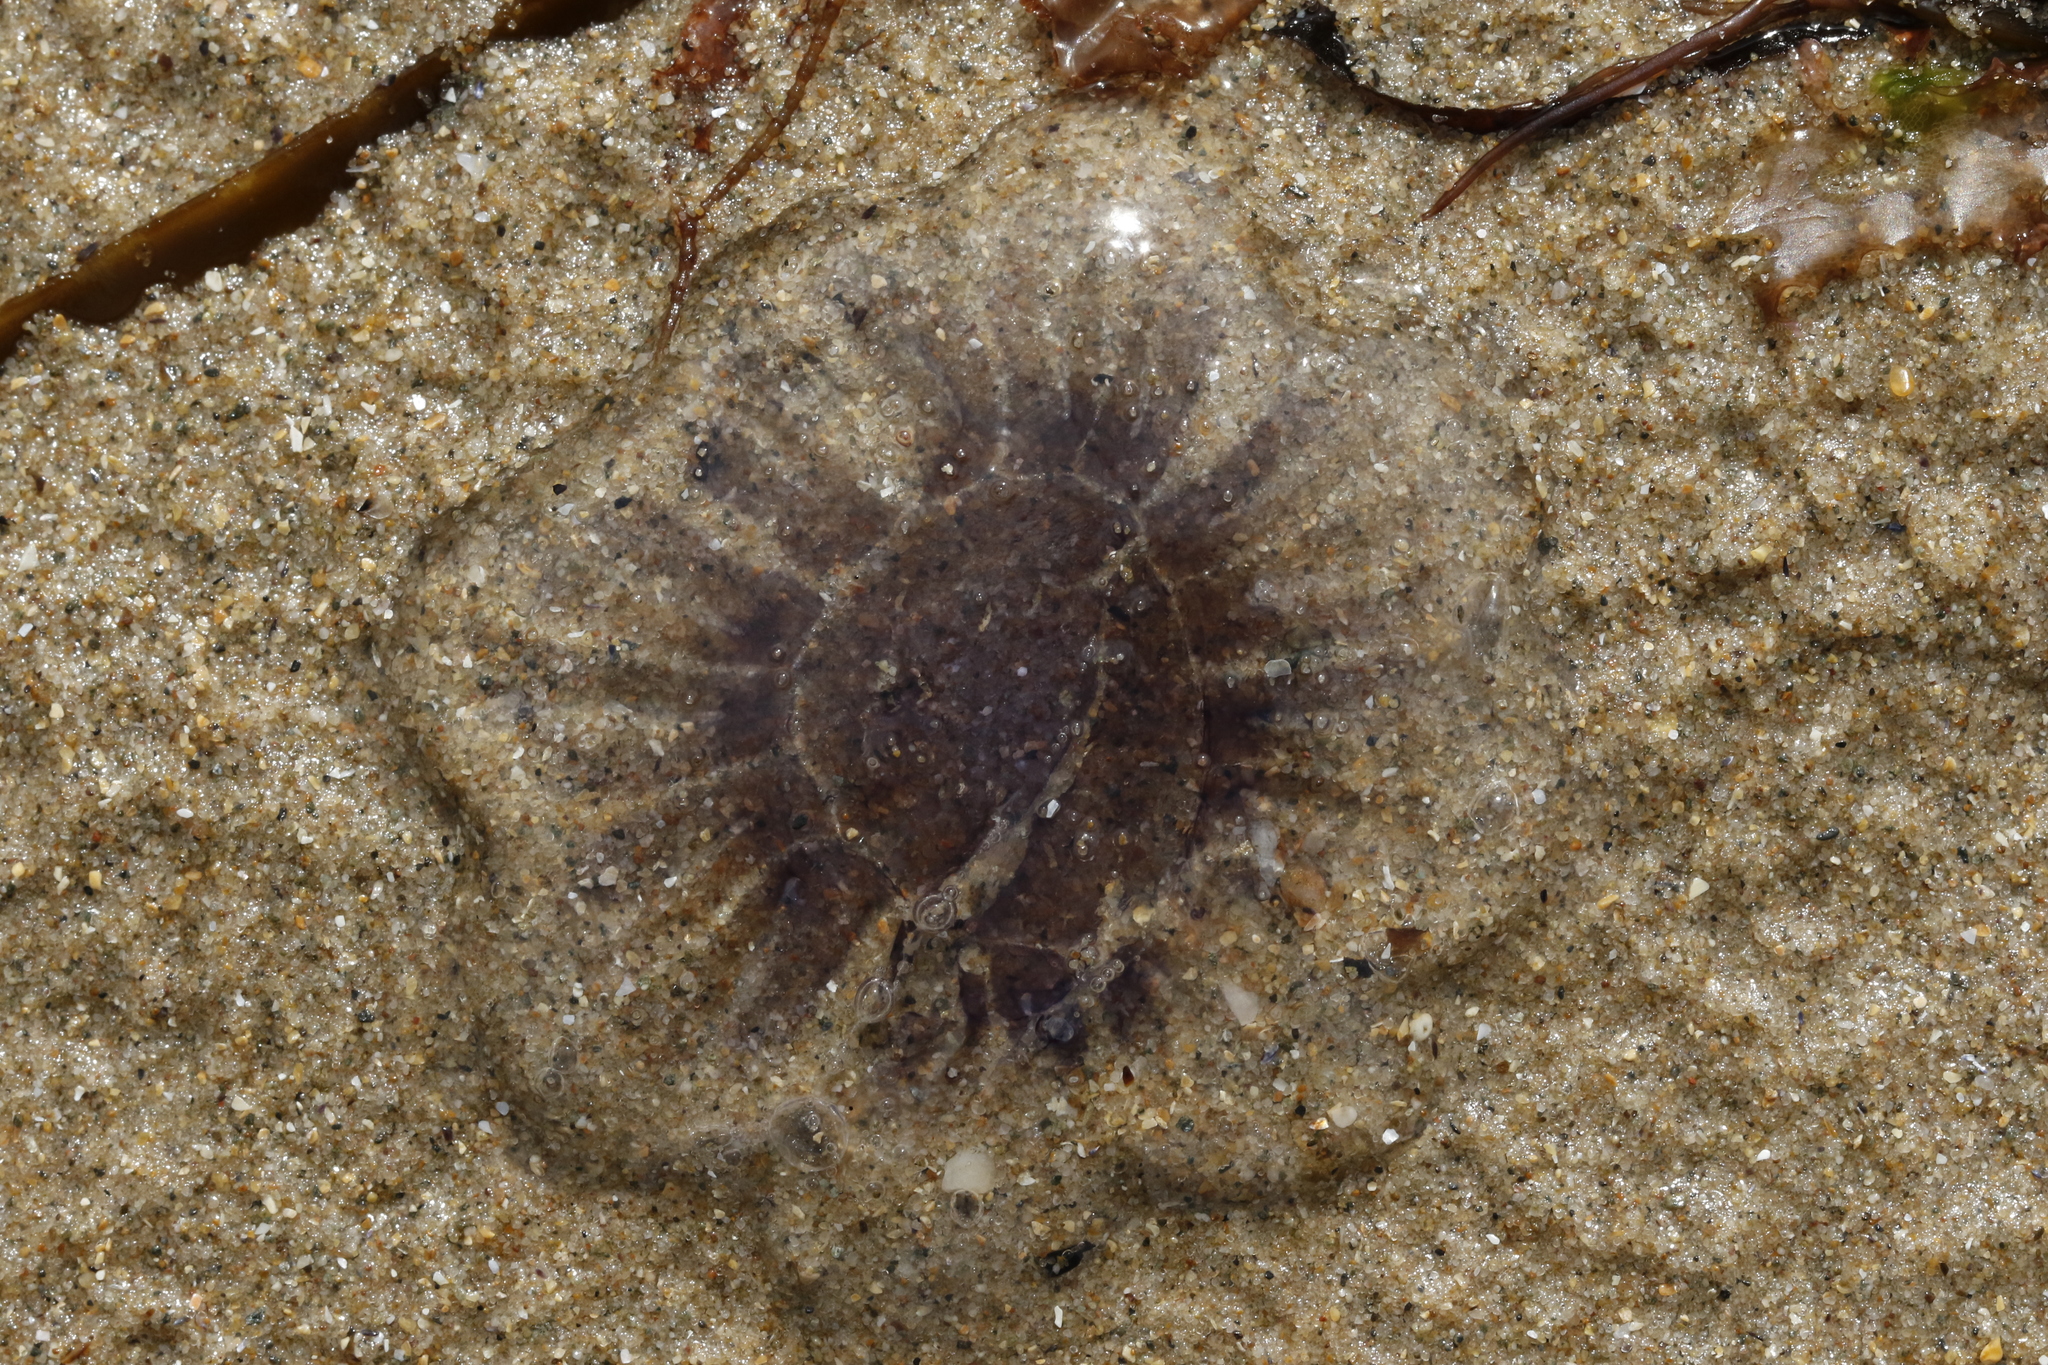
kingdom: Animalia
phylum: Cnidaria
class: Scyphozoa
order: Semaeostomeae
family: Cyaneidae
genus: Cyanea
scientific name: Cyanea lamarckii
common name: Blue jellyfish
